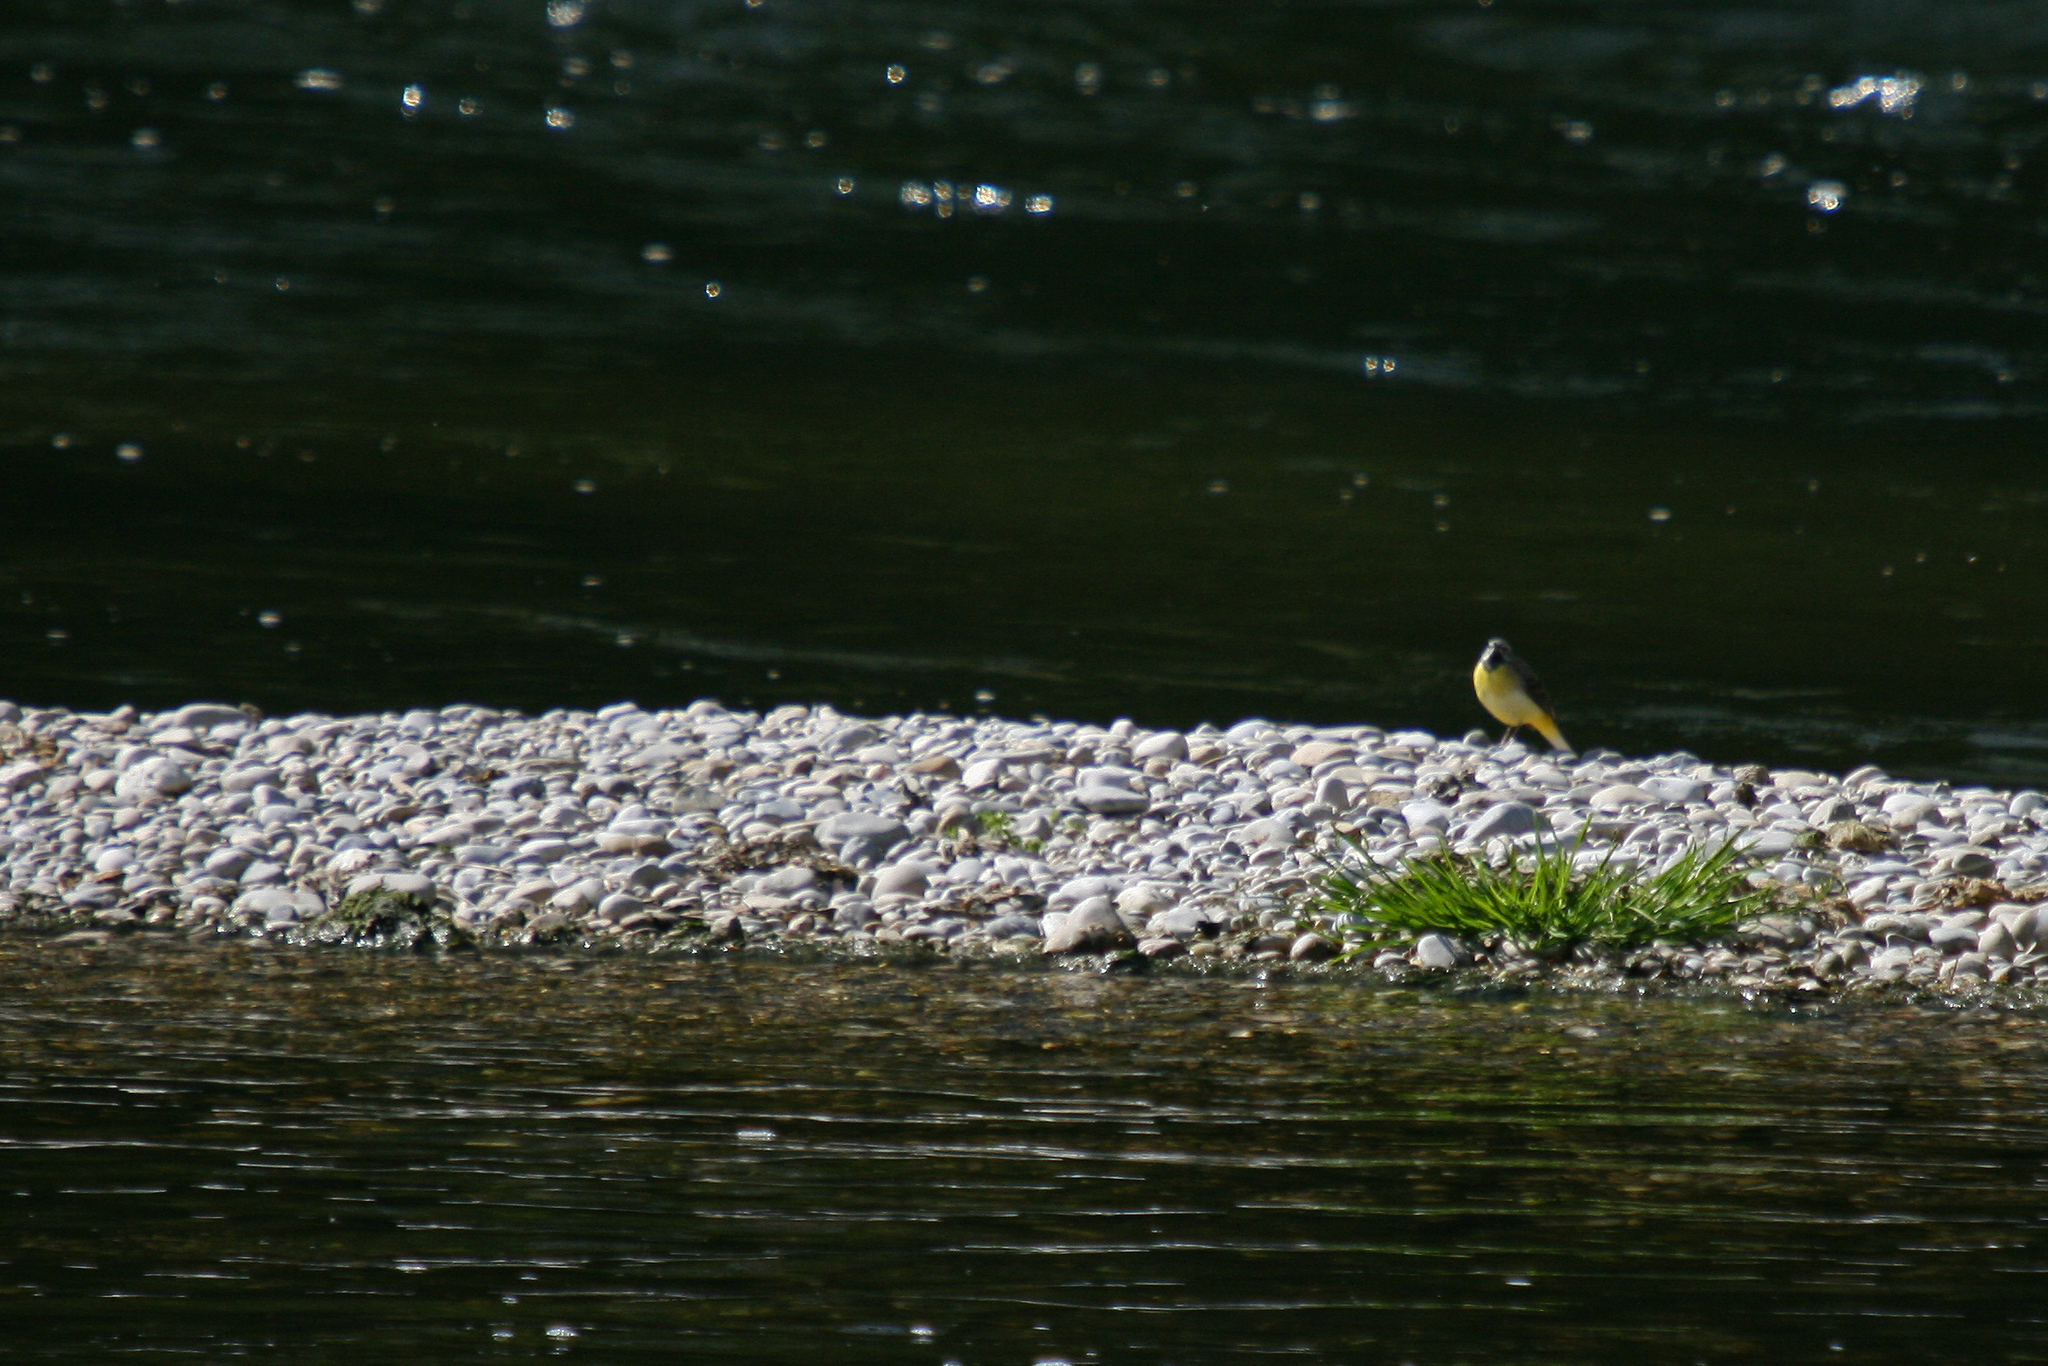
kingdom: Animalia
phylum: Chordata
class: Aves
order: Passeriformes
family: Motacillidae
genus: Motacilla
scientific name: Motacilla cinerea
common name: Grey wagtail
